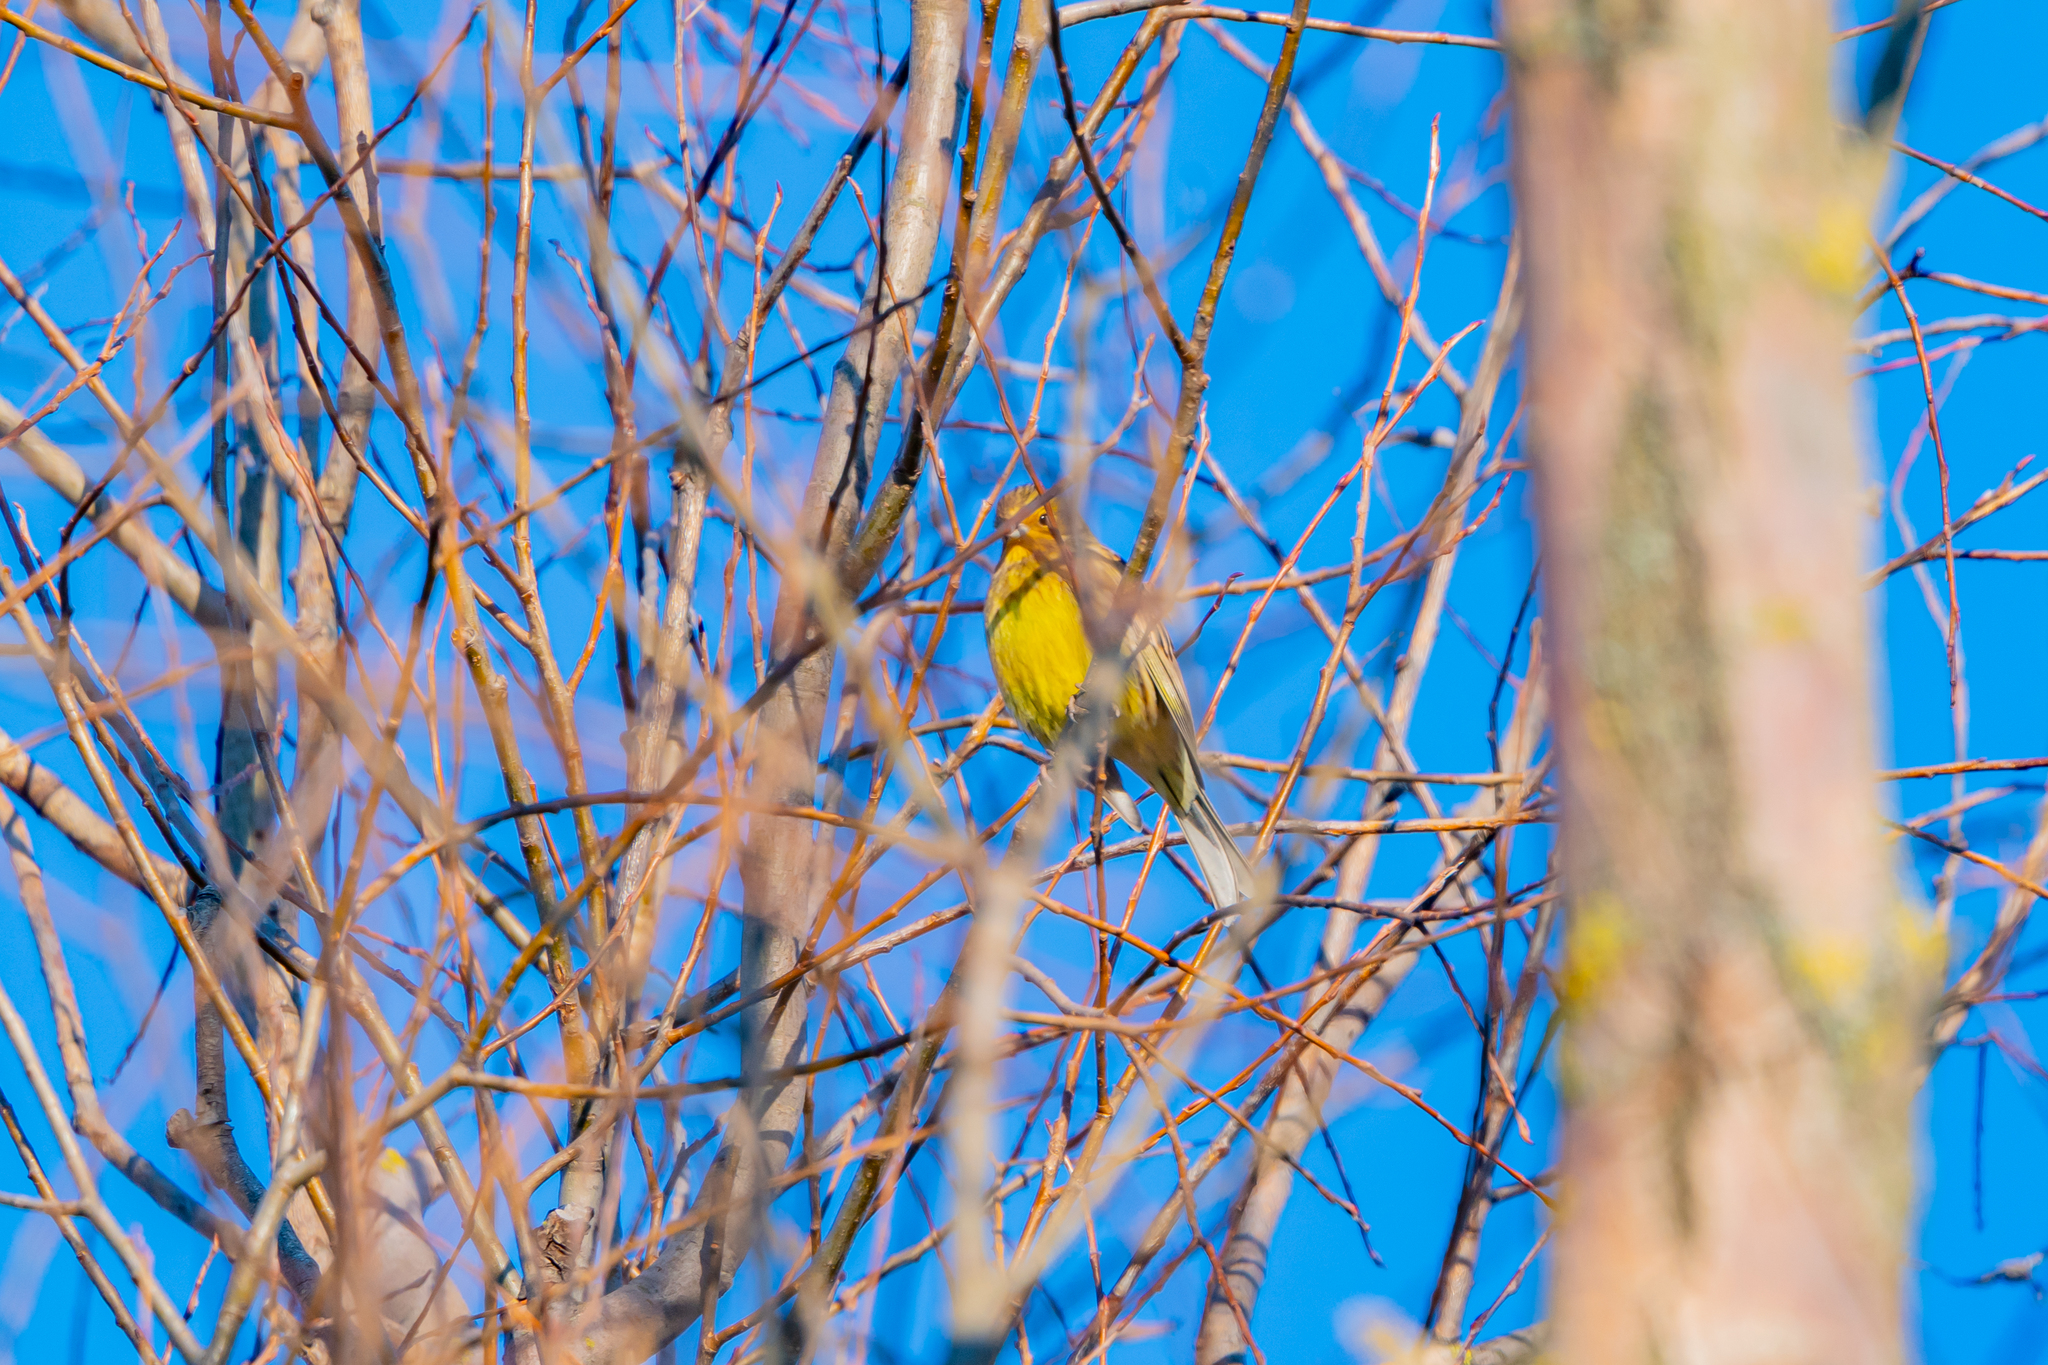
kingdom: Animalia
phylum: Chordata
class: Aves
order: Passeriformes
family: Emberizidae
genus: Emberiza
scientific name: Emberiza citrinella
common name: Yellowhammer
